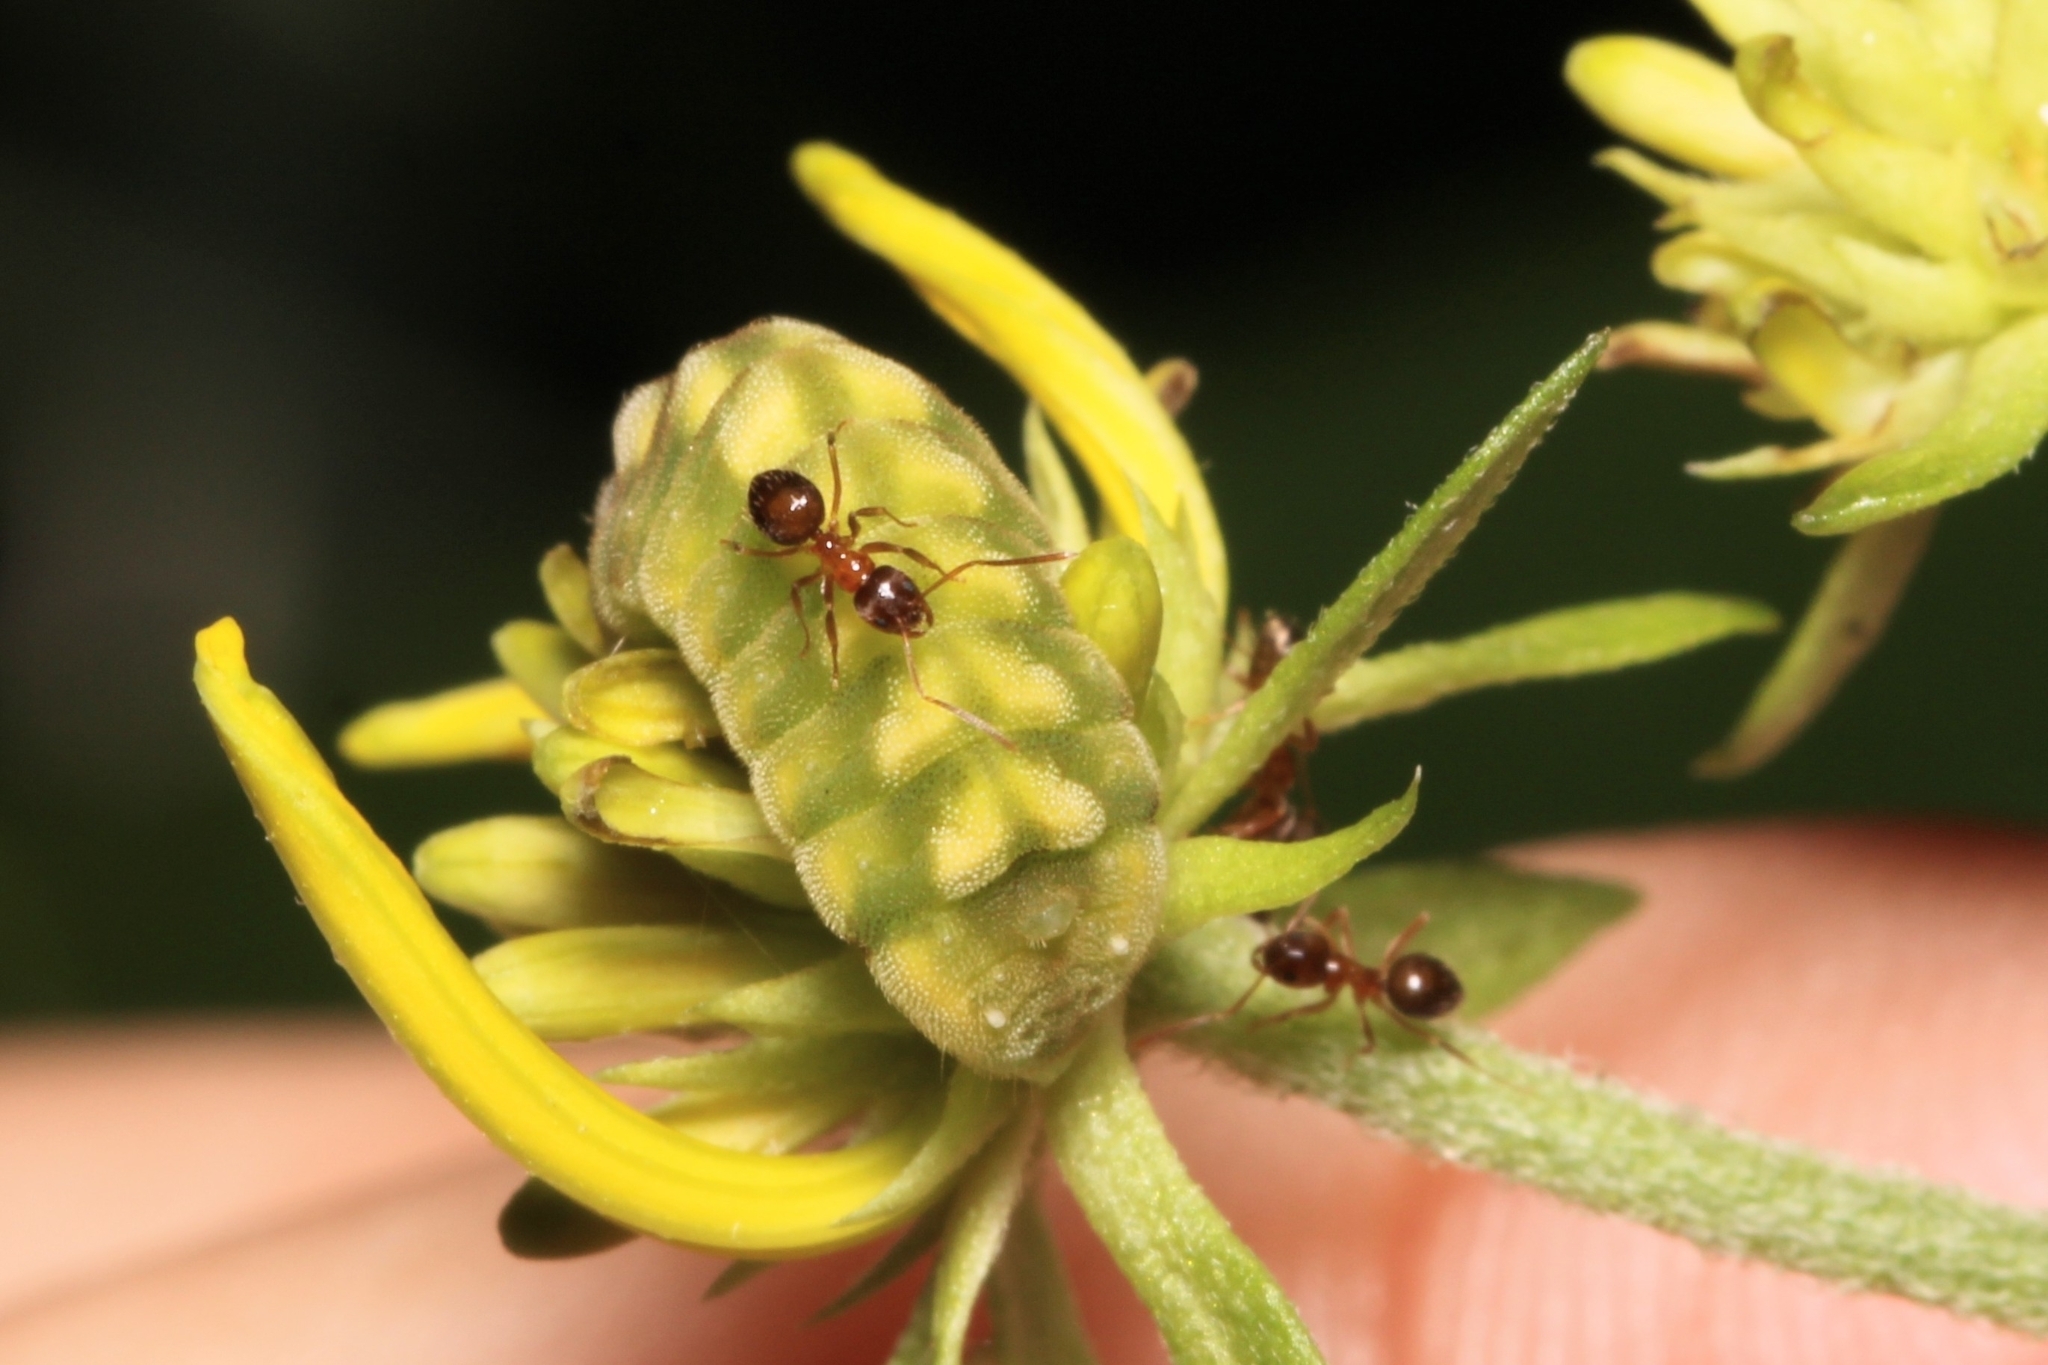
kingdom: Animalia
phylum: Arthropoda
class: Insecta
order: Hymenoptera
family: Formicidae
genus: Paratrechina
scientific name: Paratrechina flavipes
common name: Eastern asian formicine ant
